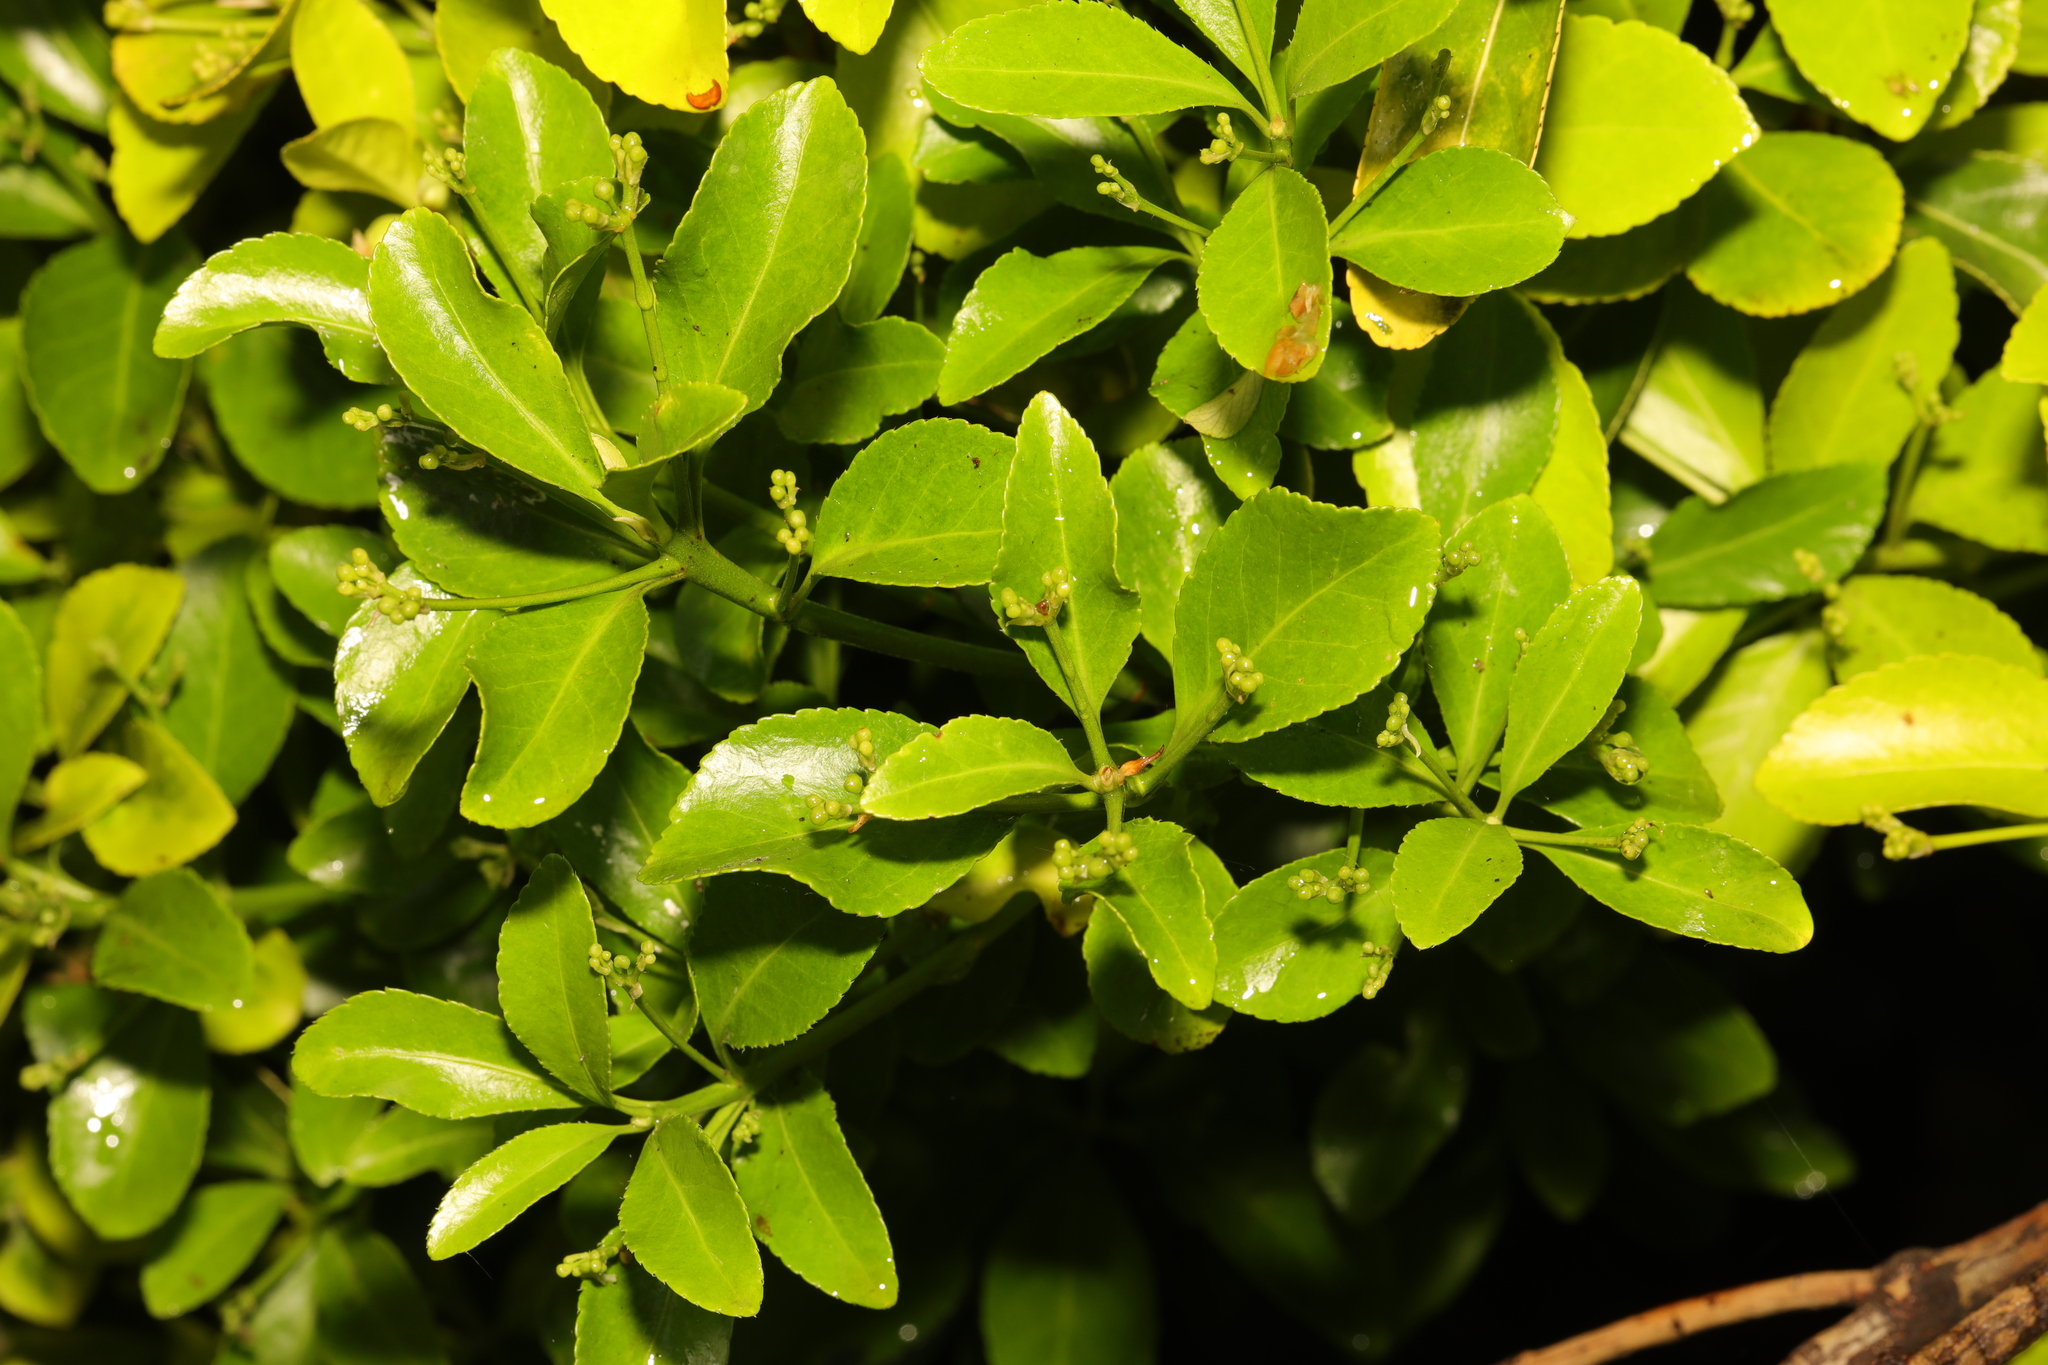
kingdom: Plantae
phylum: Tracheophyta
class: Magnoliopsida
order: Celastrales
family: Celastraceae
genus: Euonymus
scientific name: Euonymus japonicus
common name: Japanese spindletree
